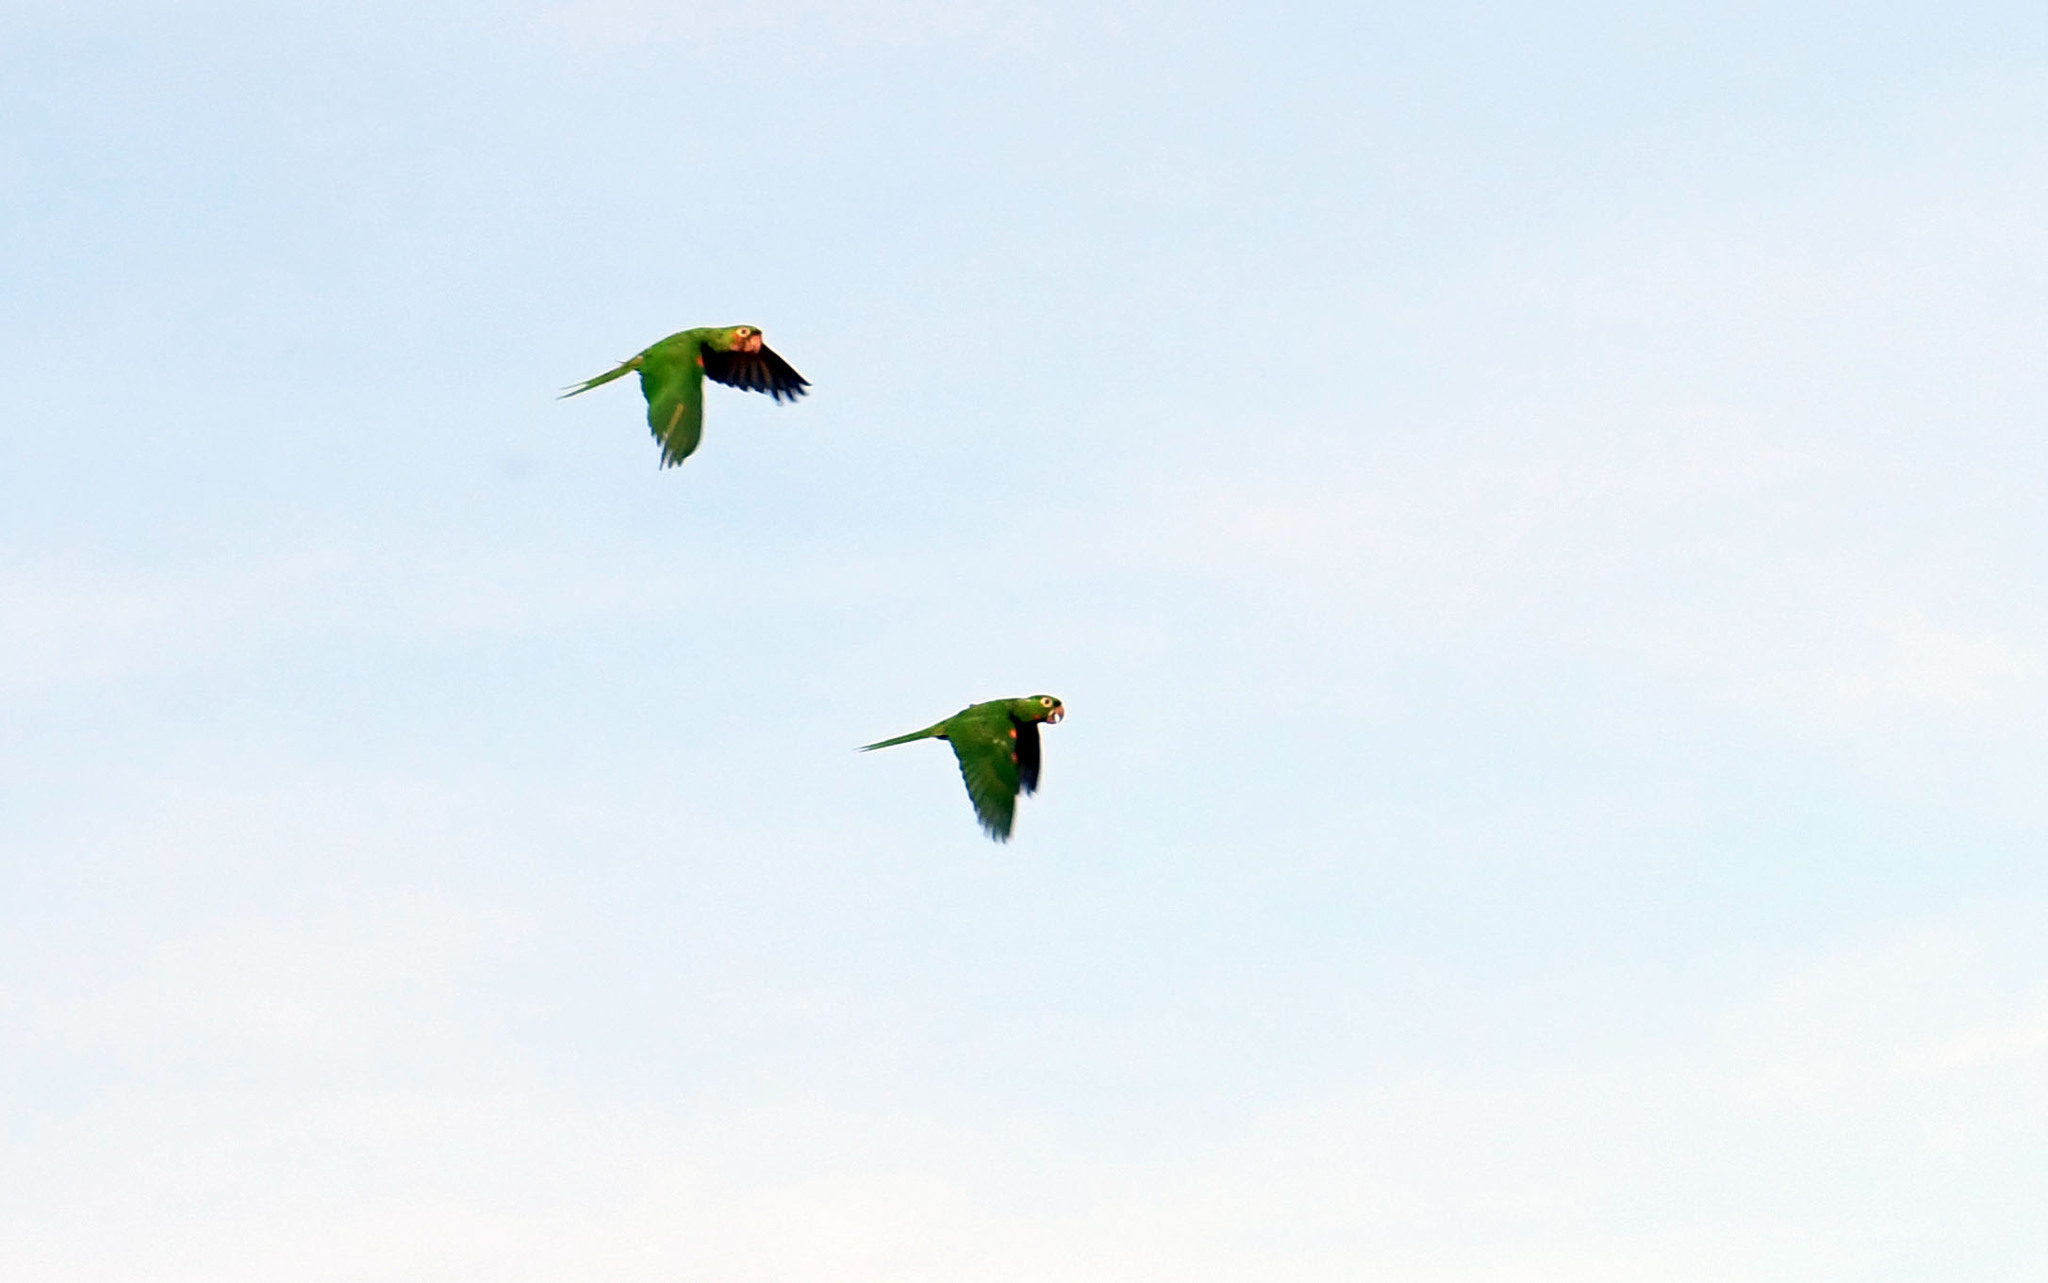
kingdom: Animalia
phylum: Chordata
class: Aves
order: Psittaciformes
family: Psittacidae
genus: Aratinga
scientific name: Aratinga leucophthalma
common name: White-eyed parakeet
